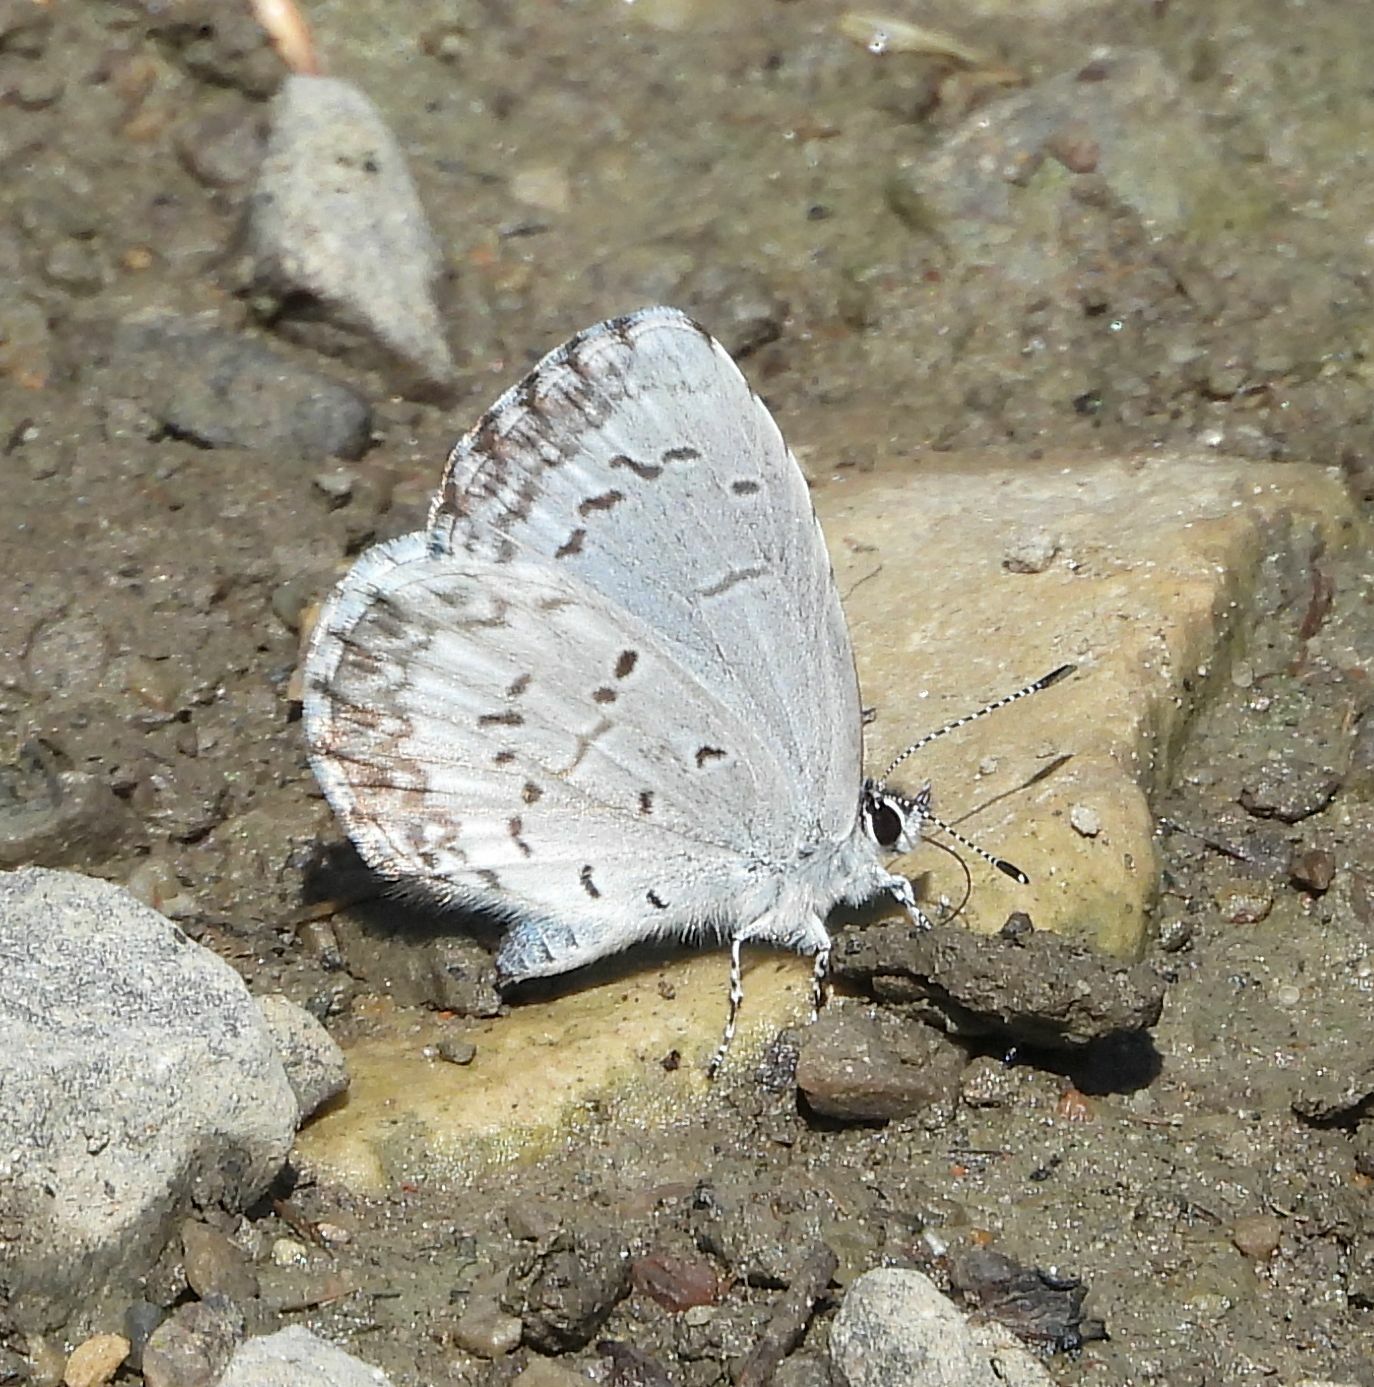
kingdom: Animalia
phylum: Arthropoda
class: Insecta
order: Lepidoptera
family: Lycaenidae
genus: Celastrina
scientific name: Celastrina lucia
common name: Lucia azure
